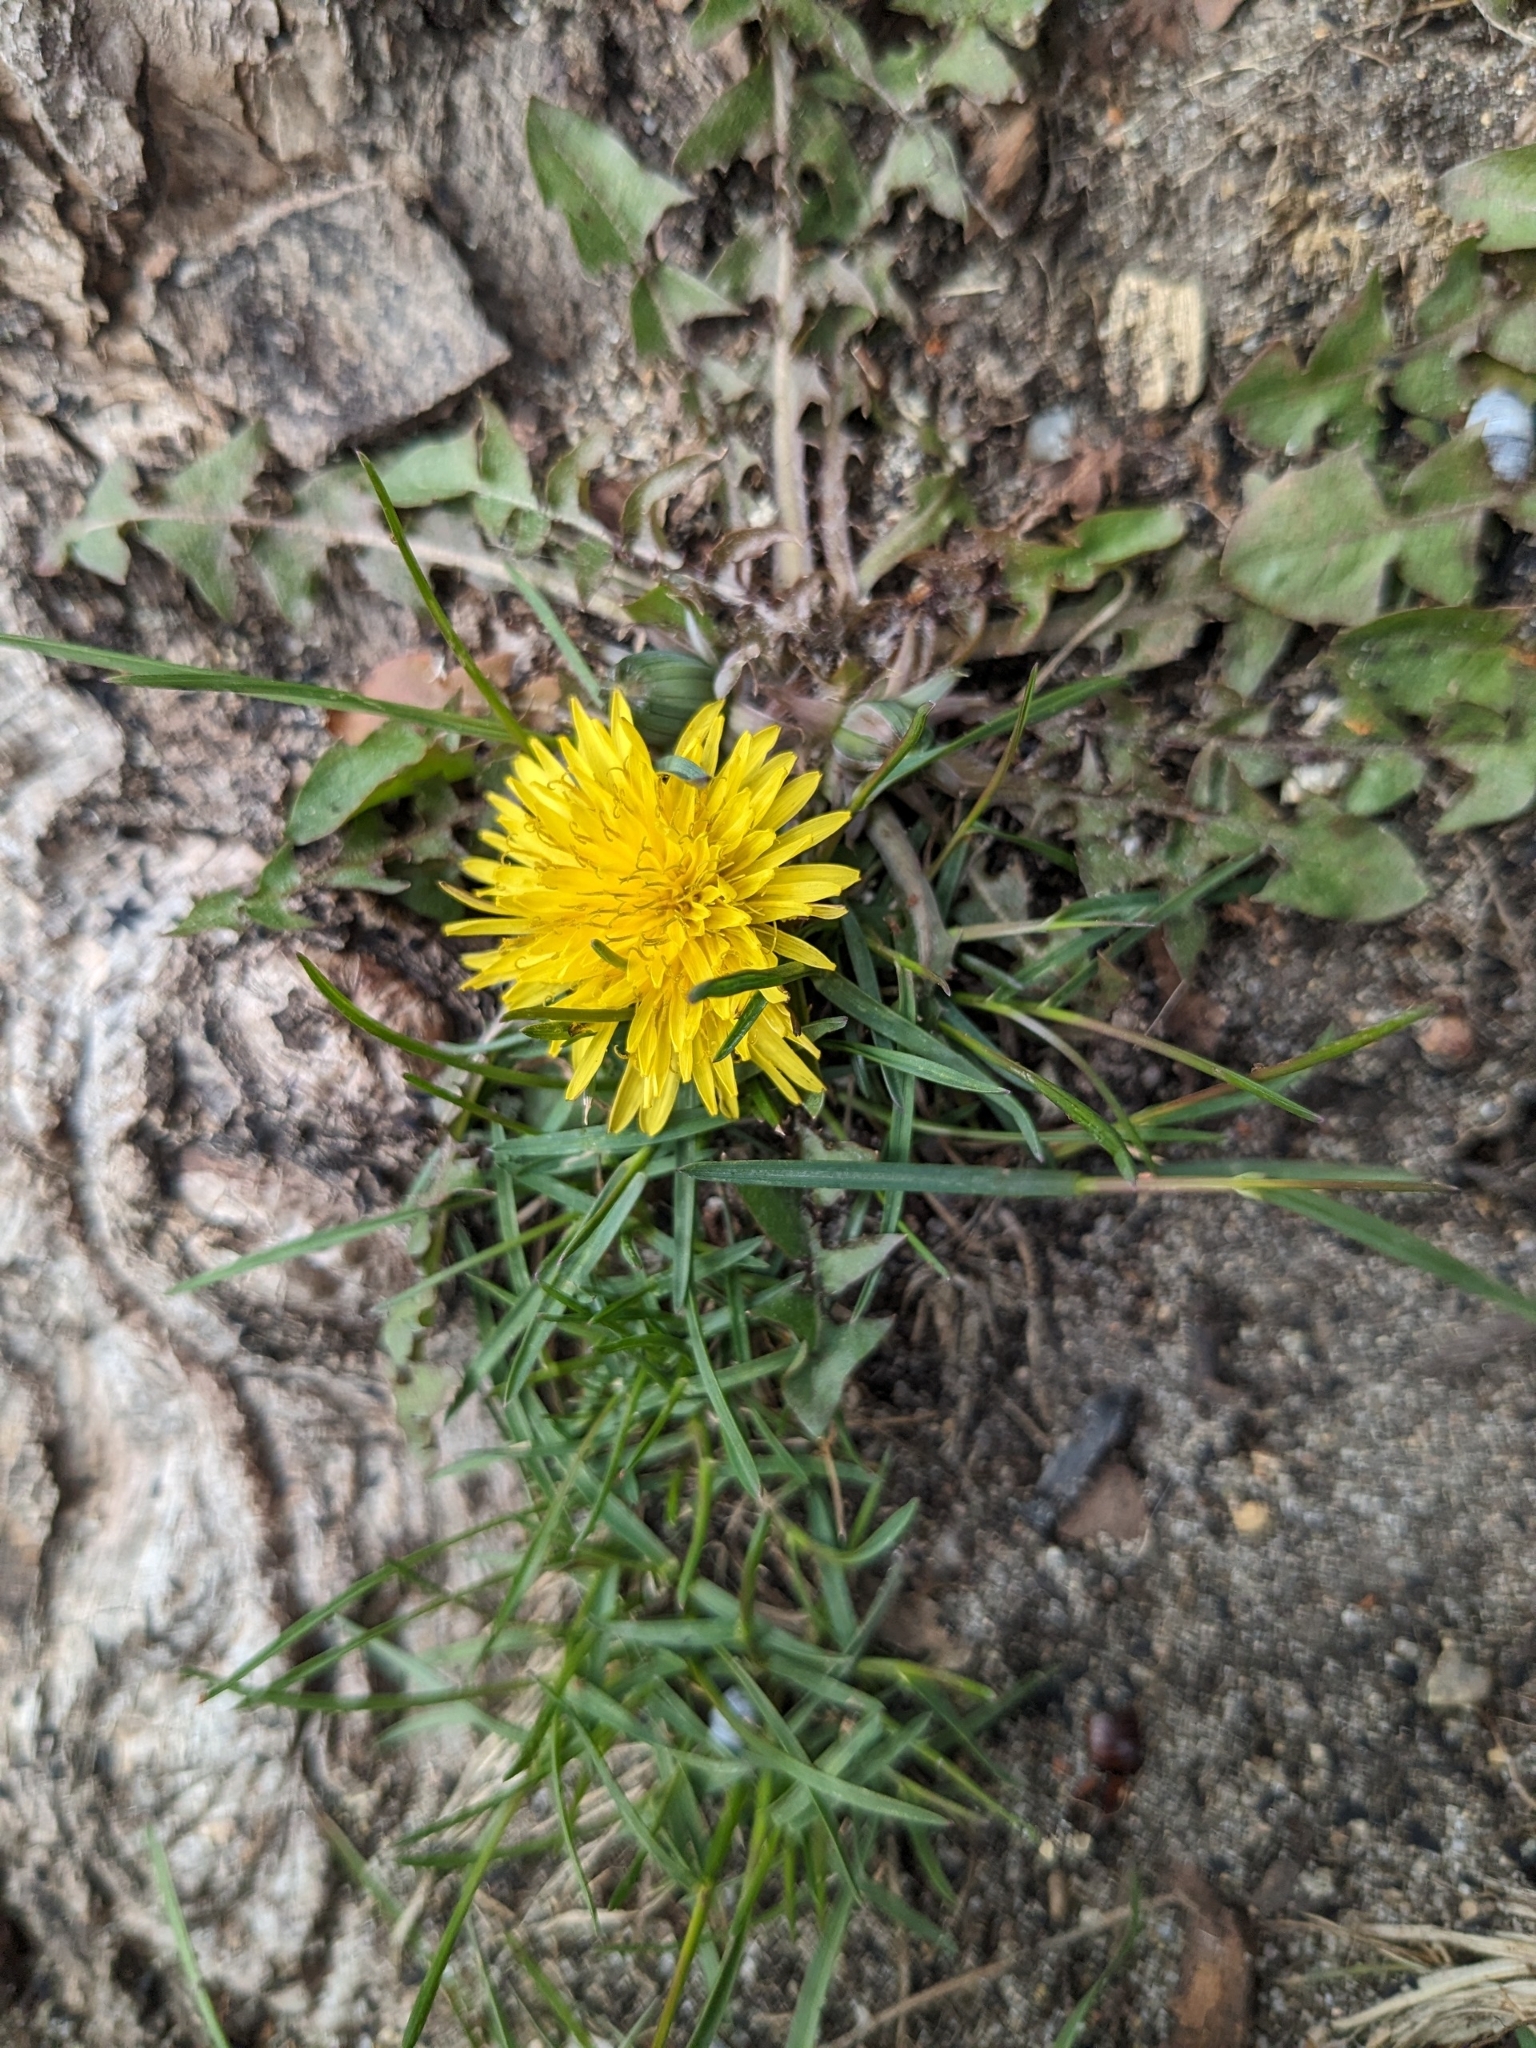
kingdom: Plantae
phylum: Tracheophyta
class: Magnoliopsida
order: Asterales
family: Asteraceae
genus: Taraxacum
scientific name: Taraxacum officinale
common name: Common dandelion
